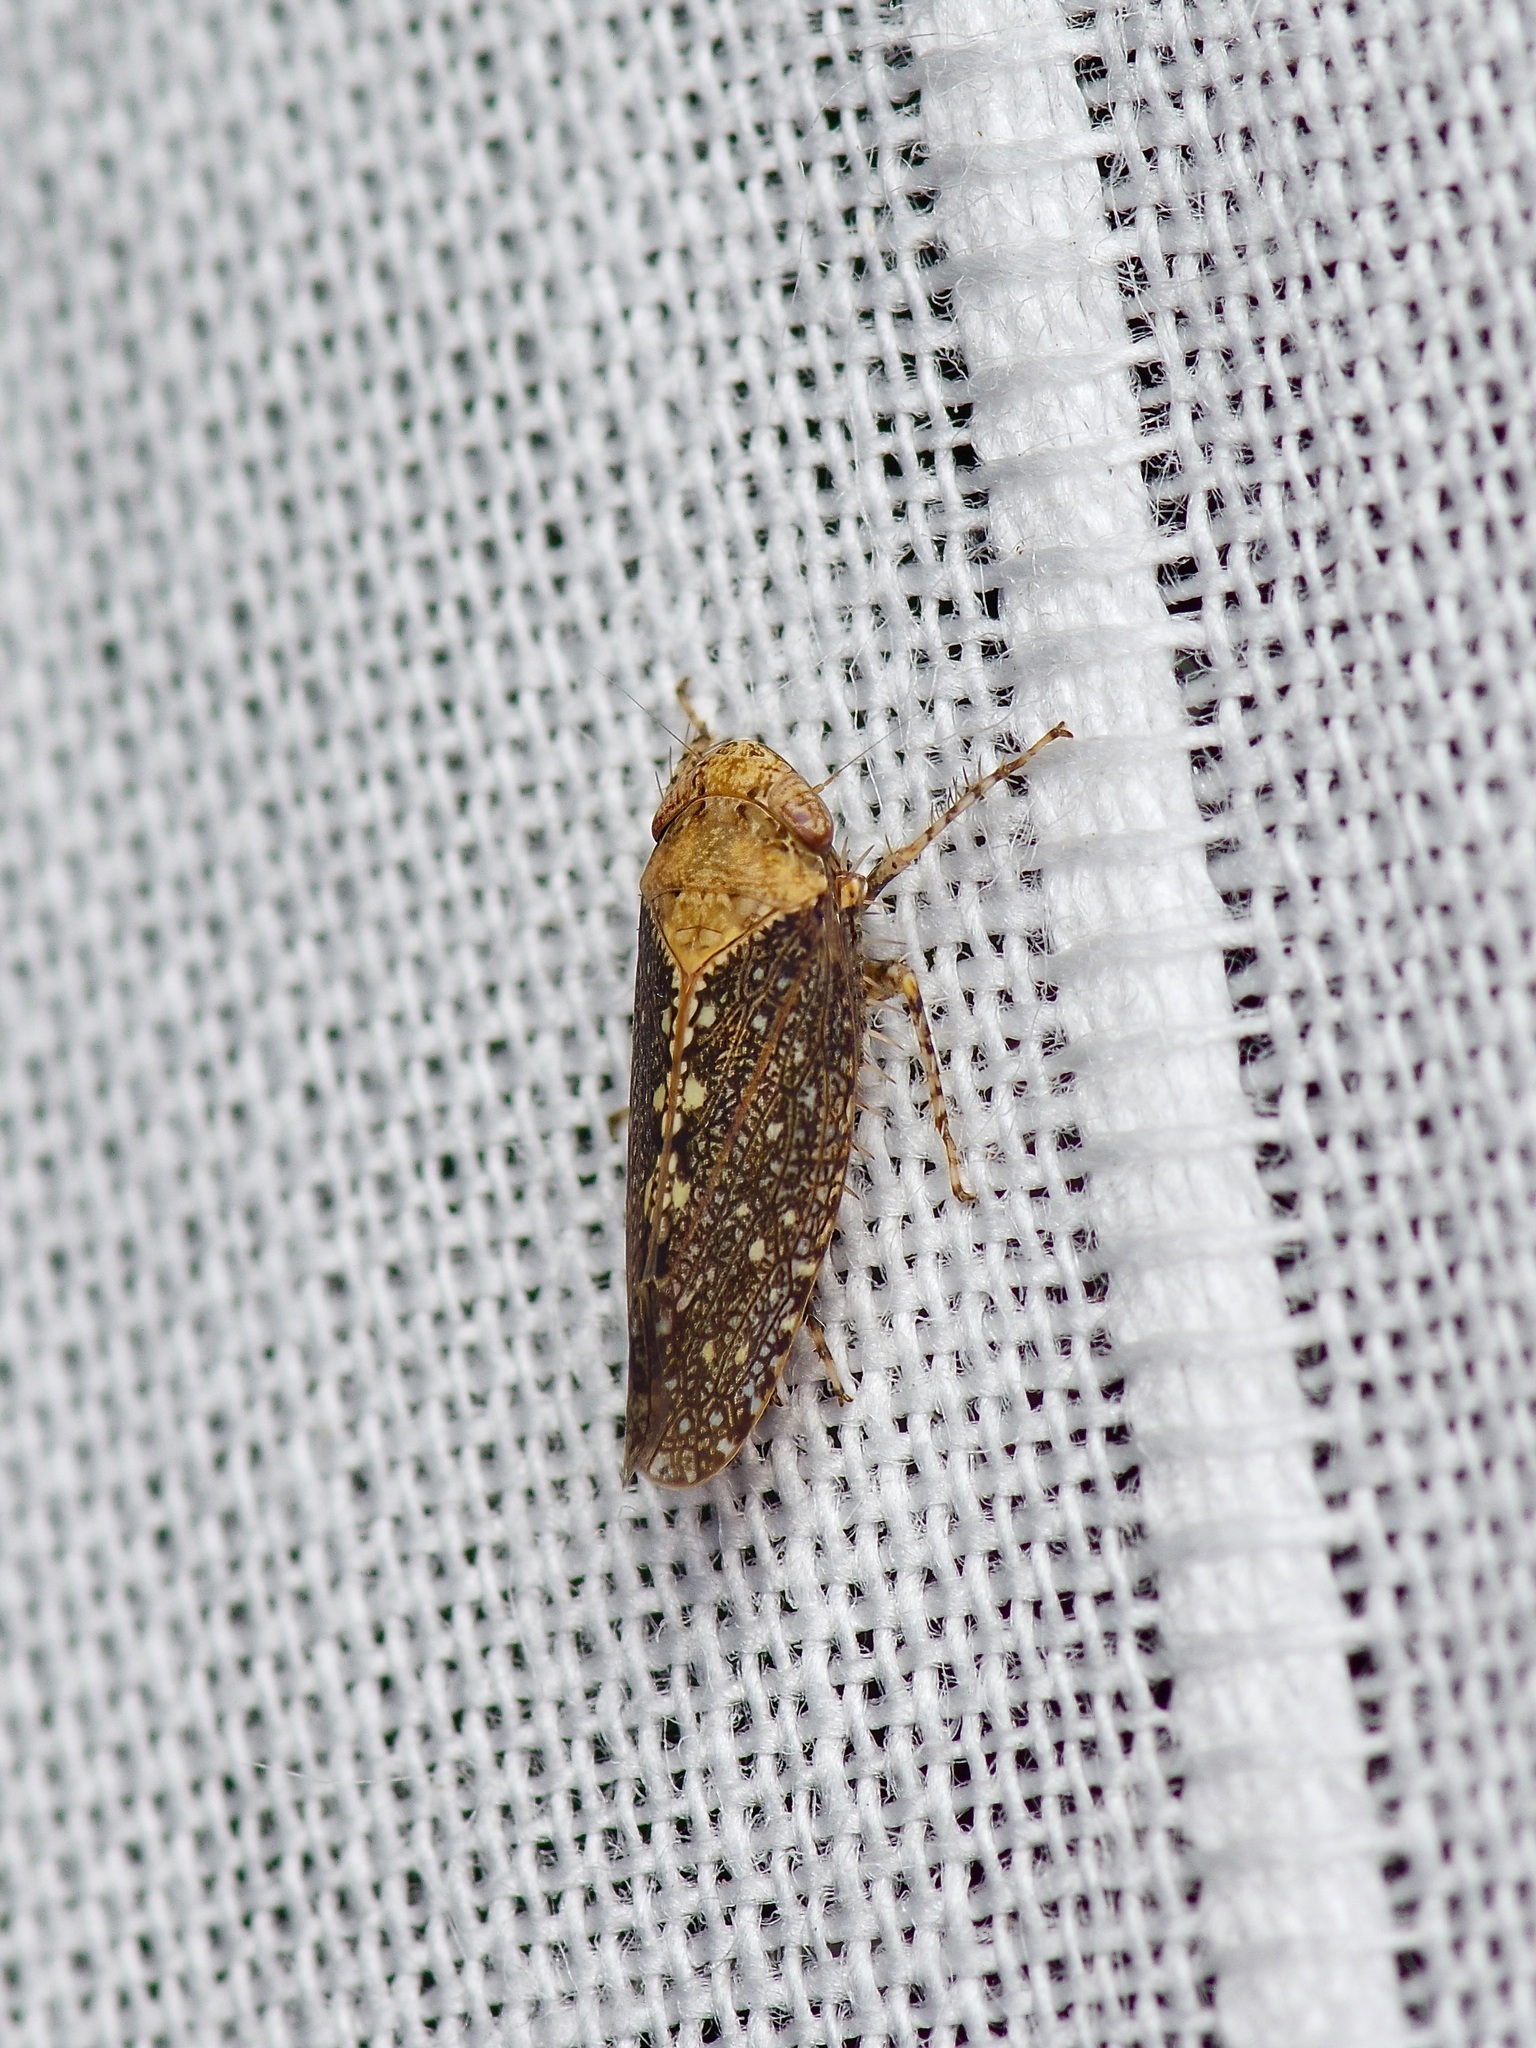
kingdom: Animalia
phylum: Arthropoda
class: Insecta
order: Hemiptera
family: Cicadellidae
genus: Excultanus
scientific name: Excultanus excultus
